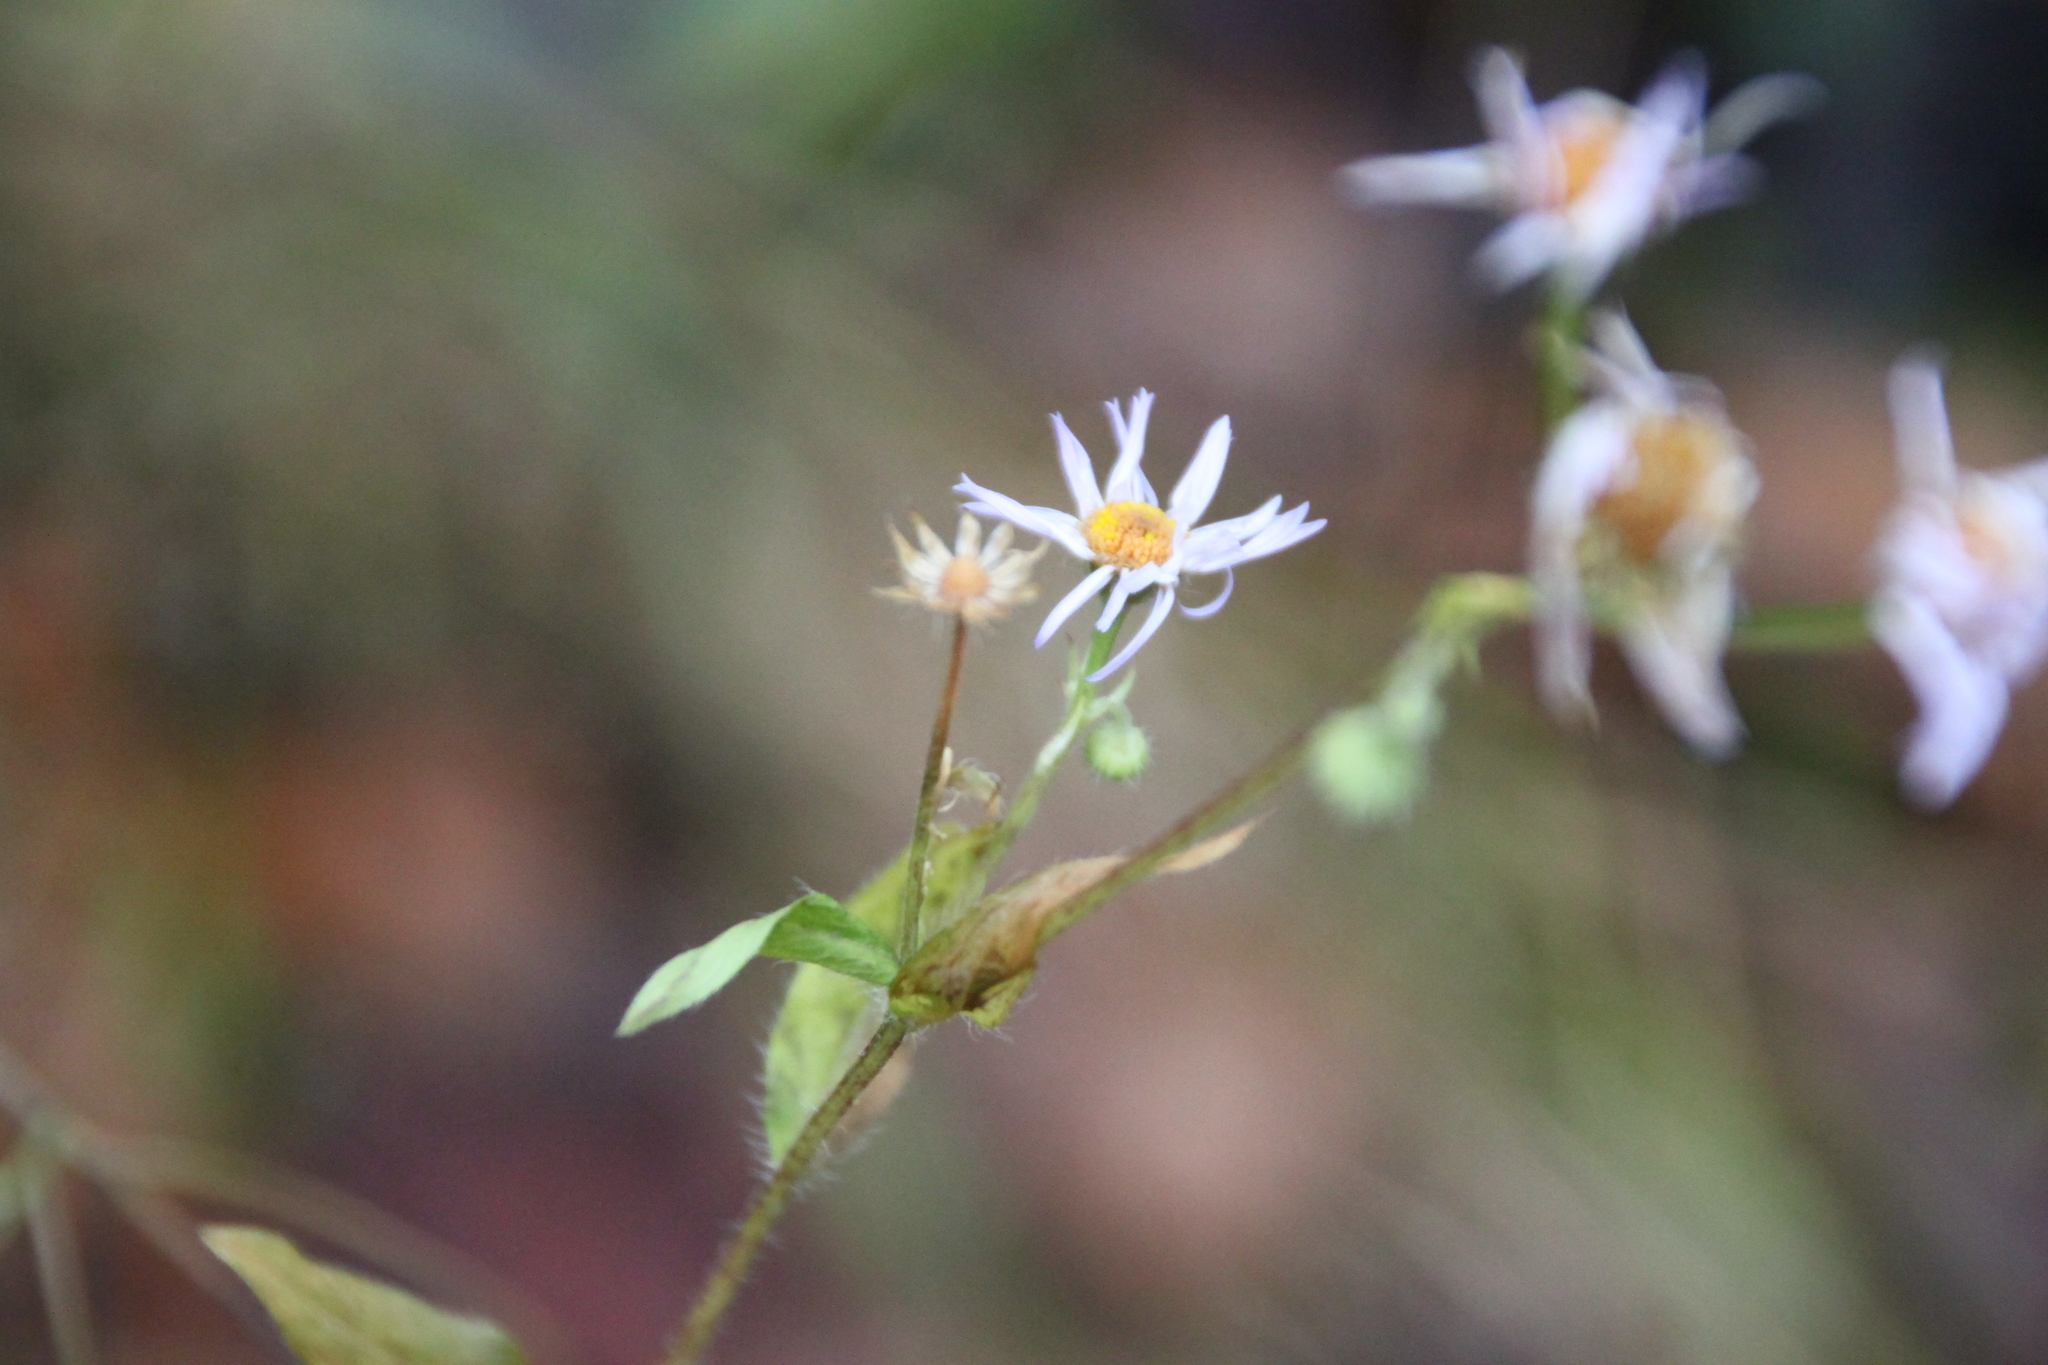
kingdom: Plantae
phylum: Tracheophyta
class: Magnoliopsida
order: Asterales
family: Asteraceae
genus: Erigeron
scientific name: Erigeron annuus
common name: Tall fleabane
